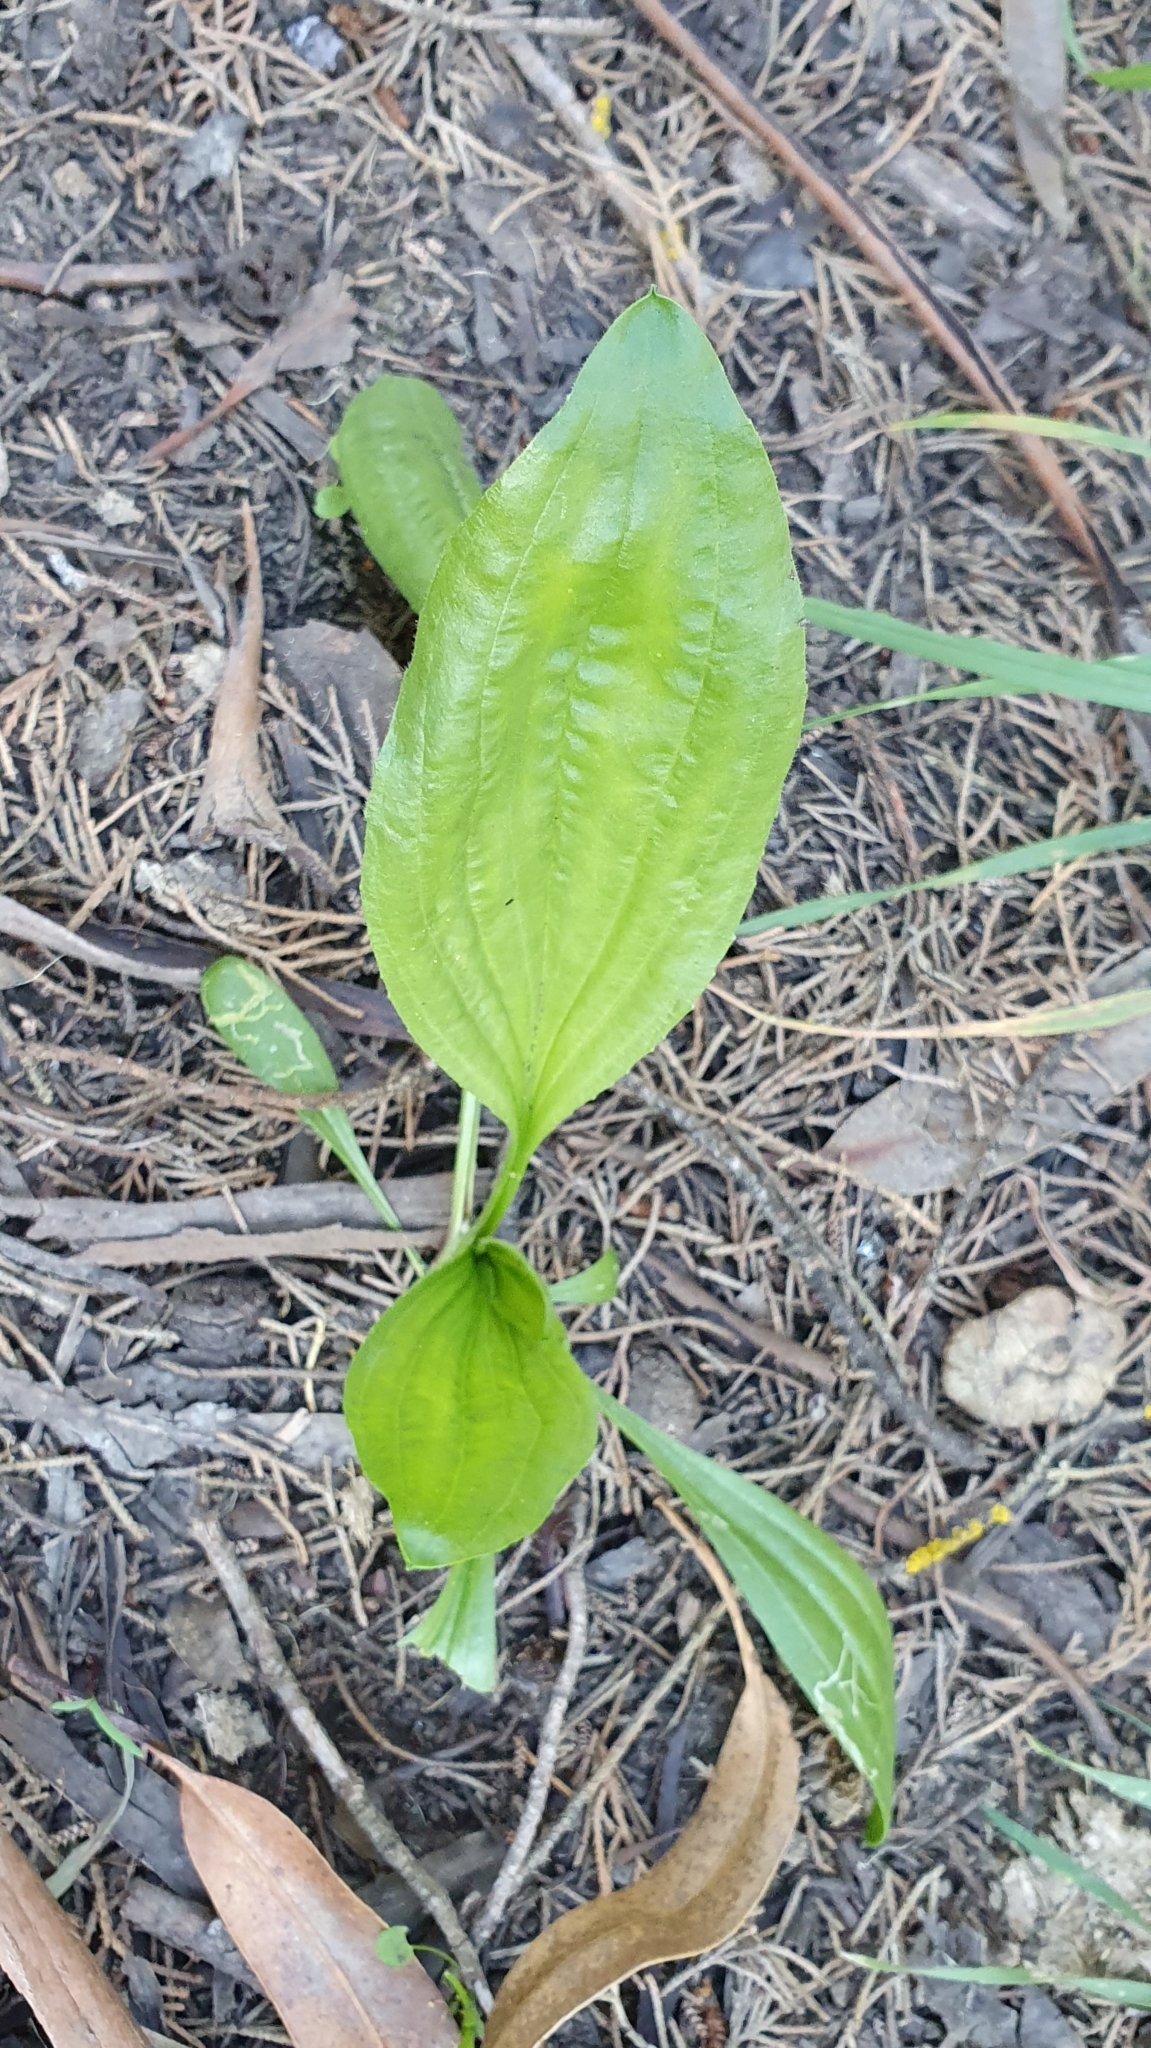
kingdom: Plantae
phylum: Tracheophyta
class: Magnoliopsida
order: Lamiales
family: Plantaginaceae
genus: Plantago
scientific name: Plantago lanceolata
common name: Ribwort plantain
